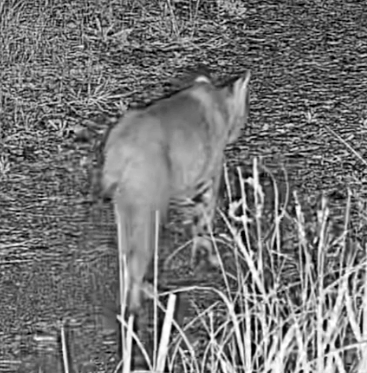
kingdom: Animalia
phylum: Chordata
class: Mammalia
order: Carnivora
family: Felidae
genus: Lynx
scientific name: Lynx rufus
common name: Bobcat
